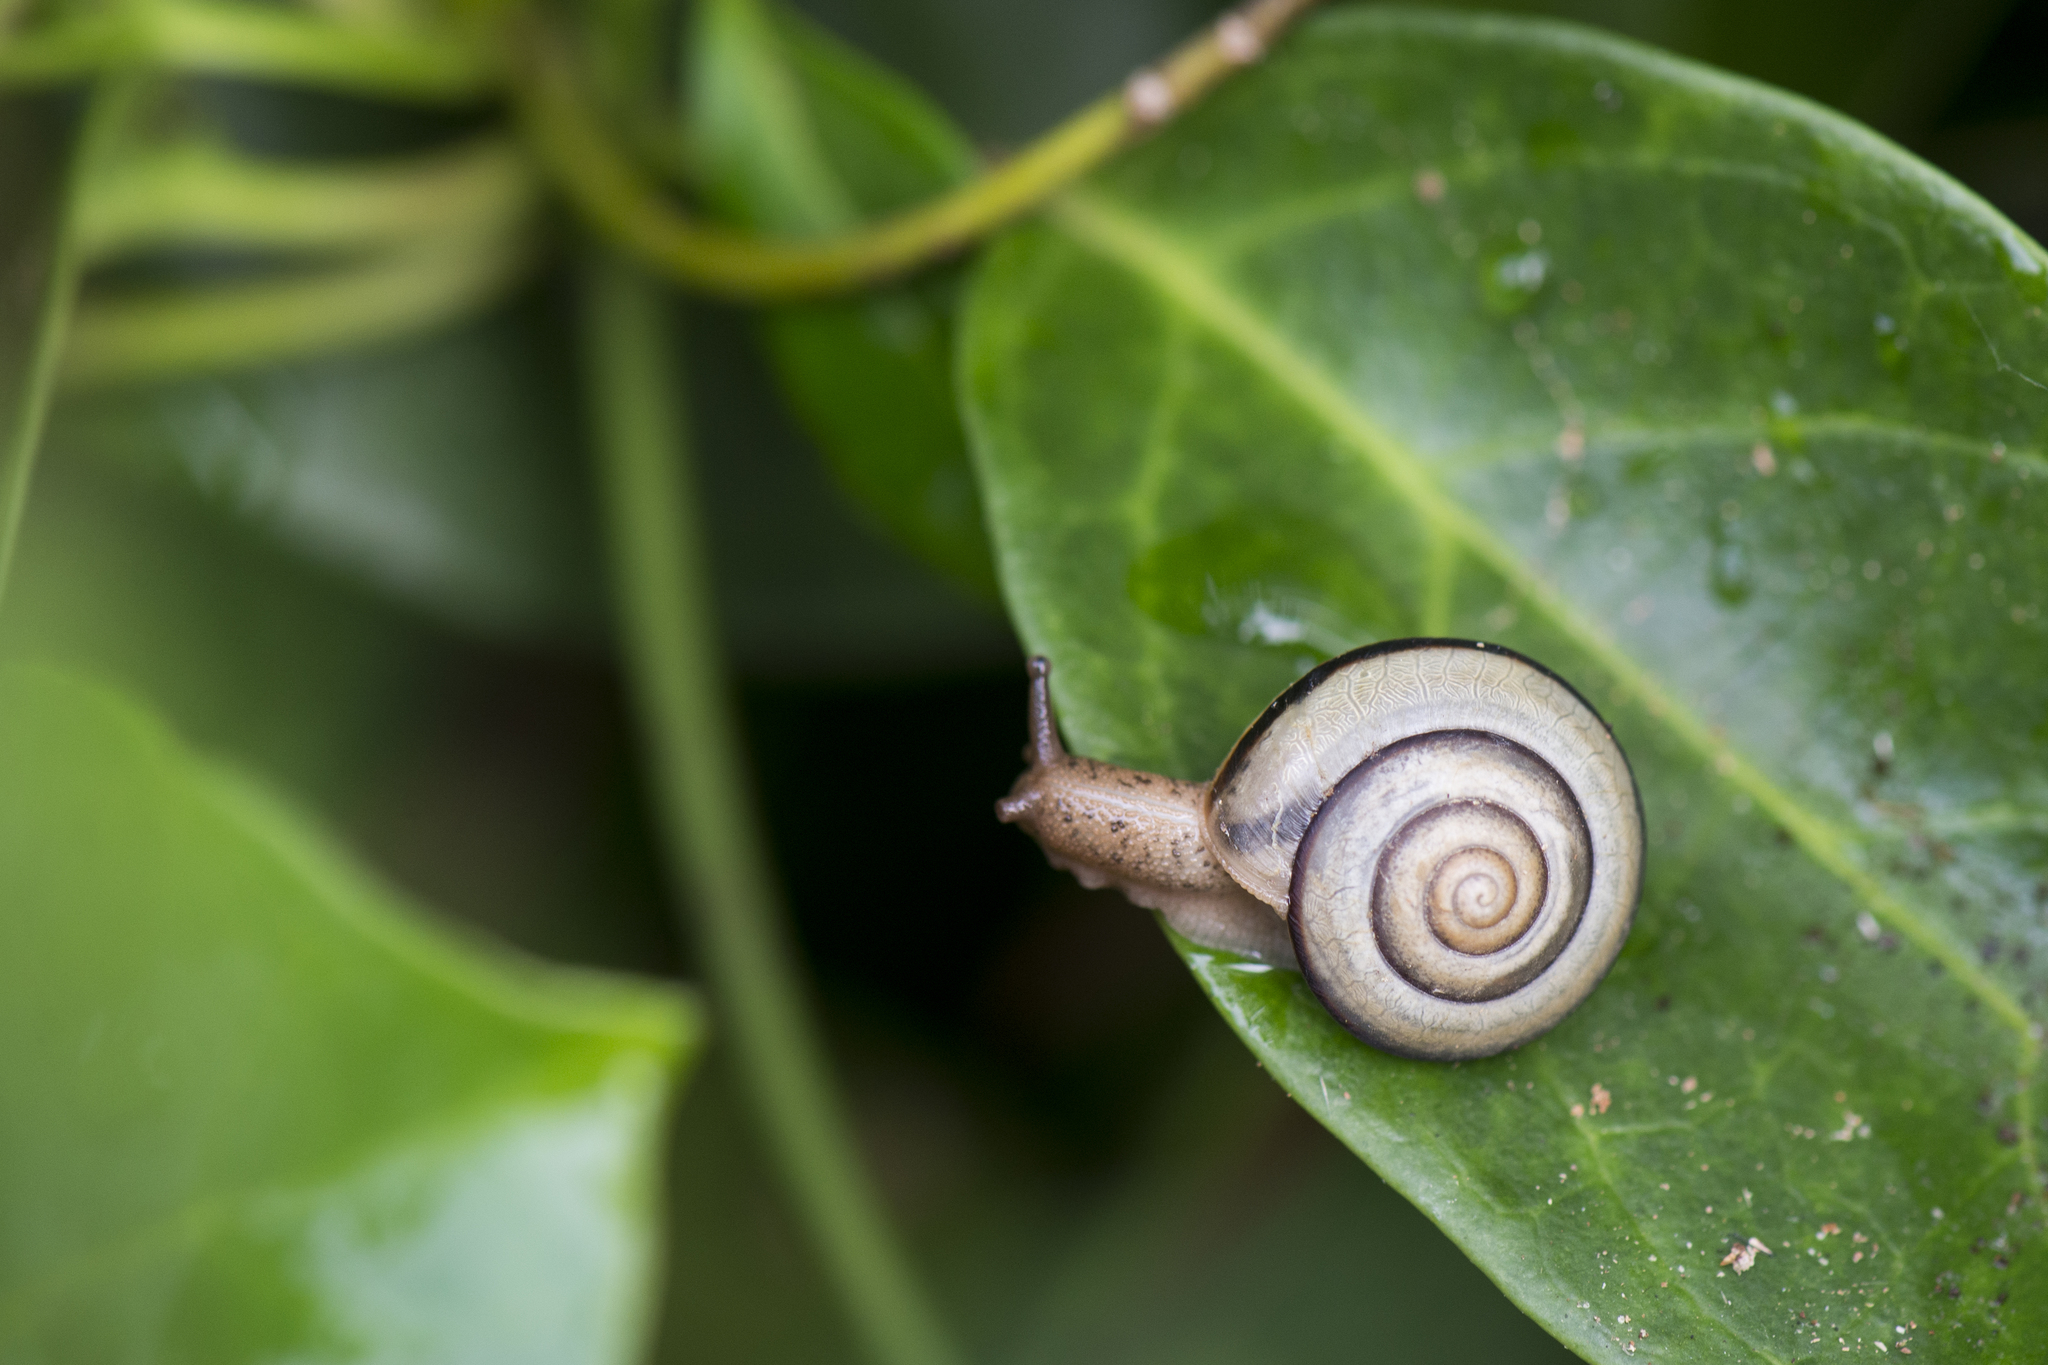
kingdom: Animalia
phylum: Mollusca
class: Gastropoda
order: Stylommatophora
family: Camaenidae
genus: Pancala
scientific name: Pancala batanica
